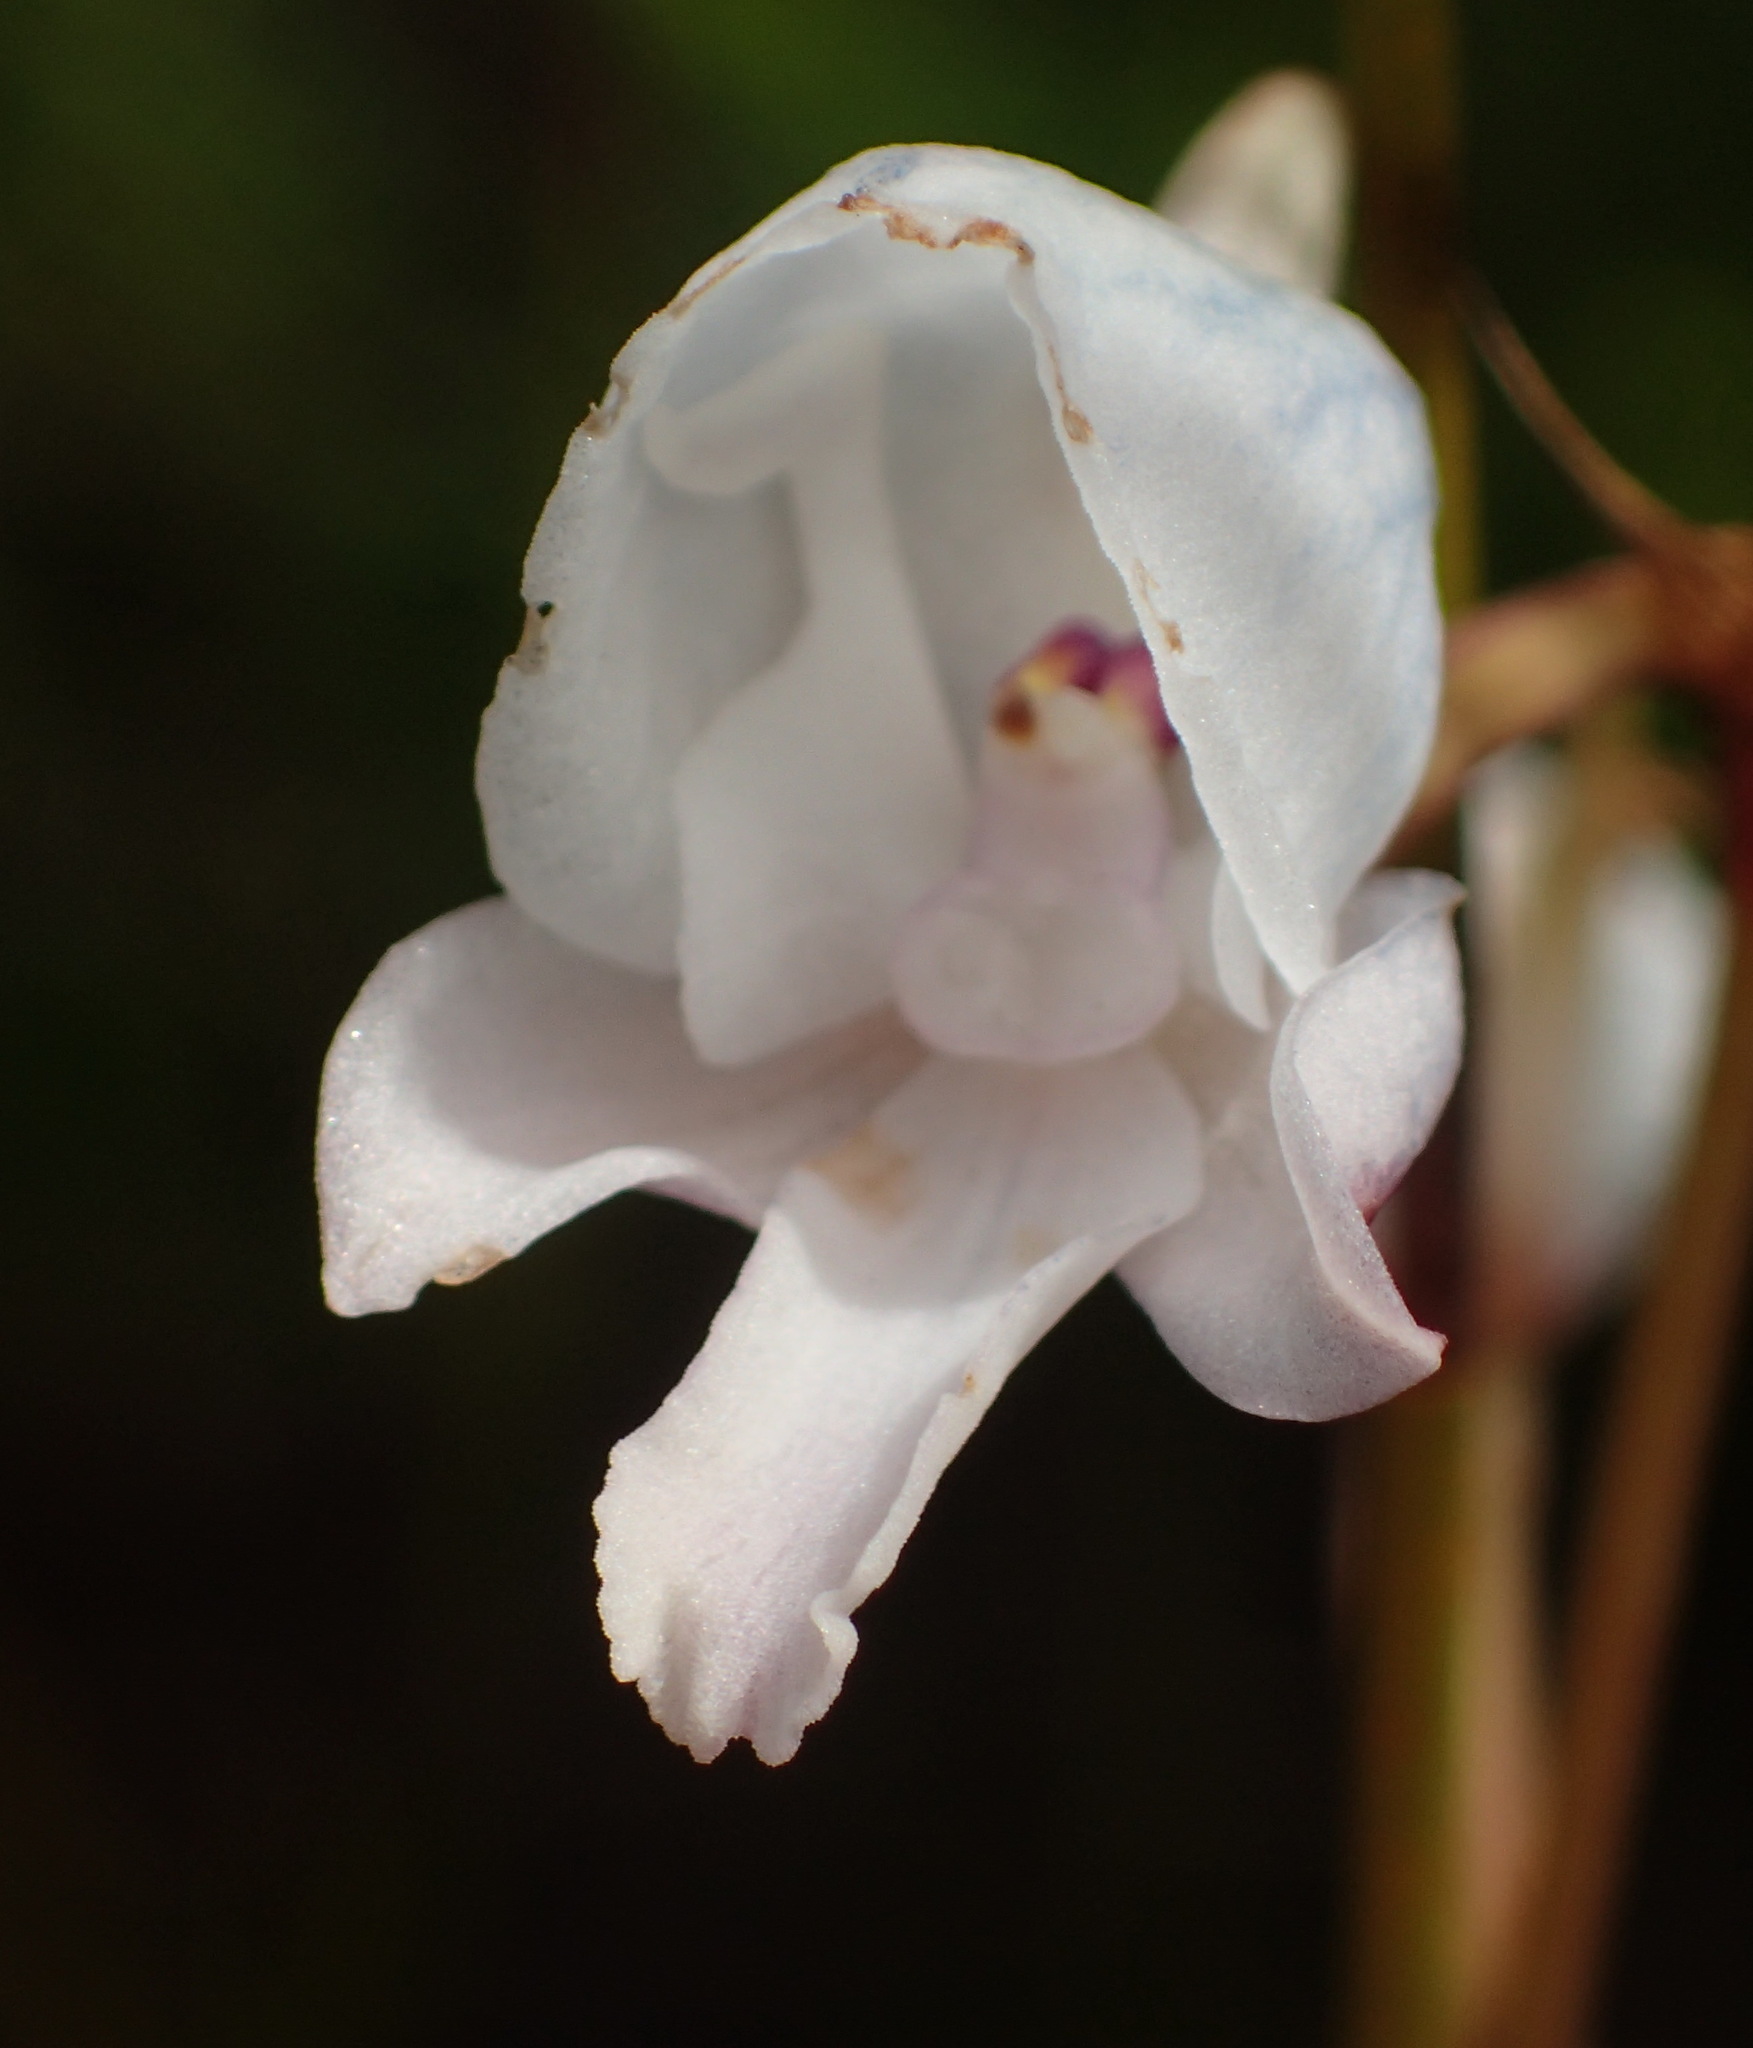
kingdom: Plantae
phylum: Tracheophyta
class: Liliopsida
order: Asparagales
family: Orchidaceae
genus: Disa
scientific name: Disa hians
